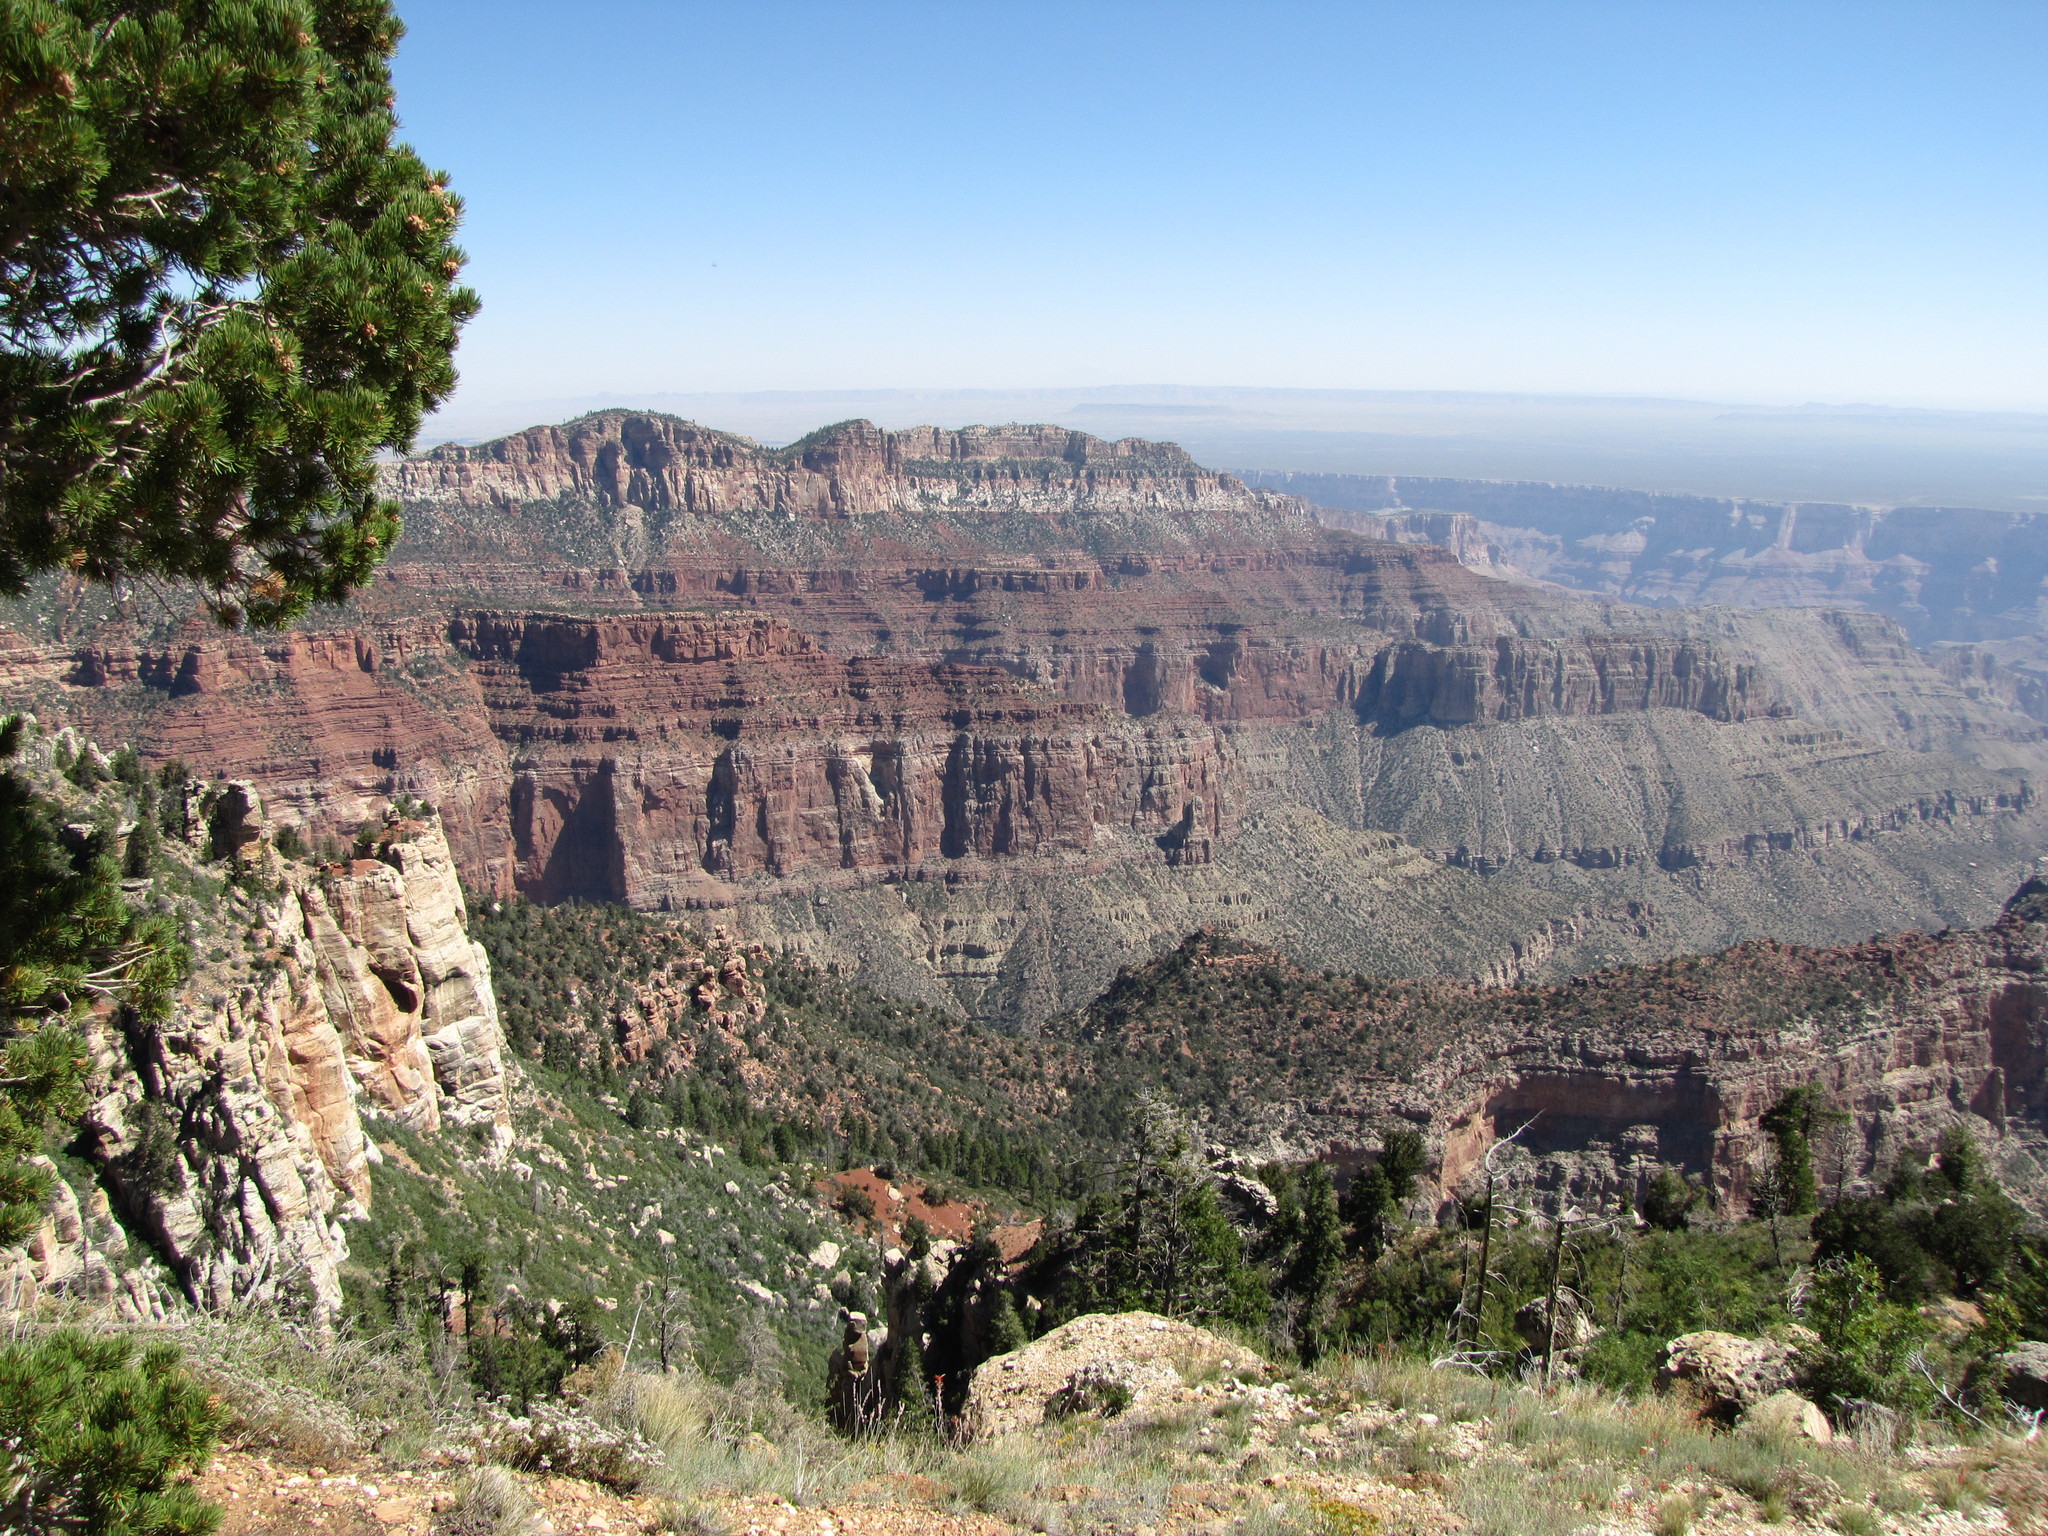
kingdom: Plantae
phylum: Tracheophyta
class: Pinopsida
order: Pinales
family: Pinaceae
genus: Pinus
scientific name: Pinus edulis
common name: Colorado pinyon
